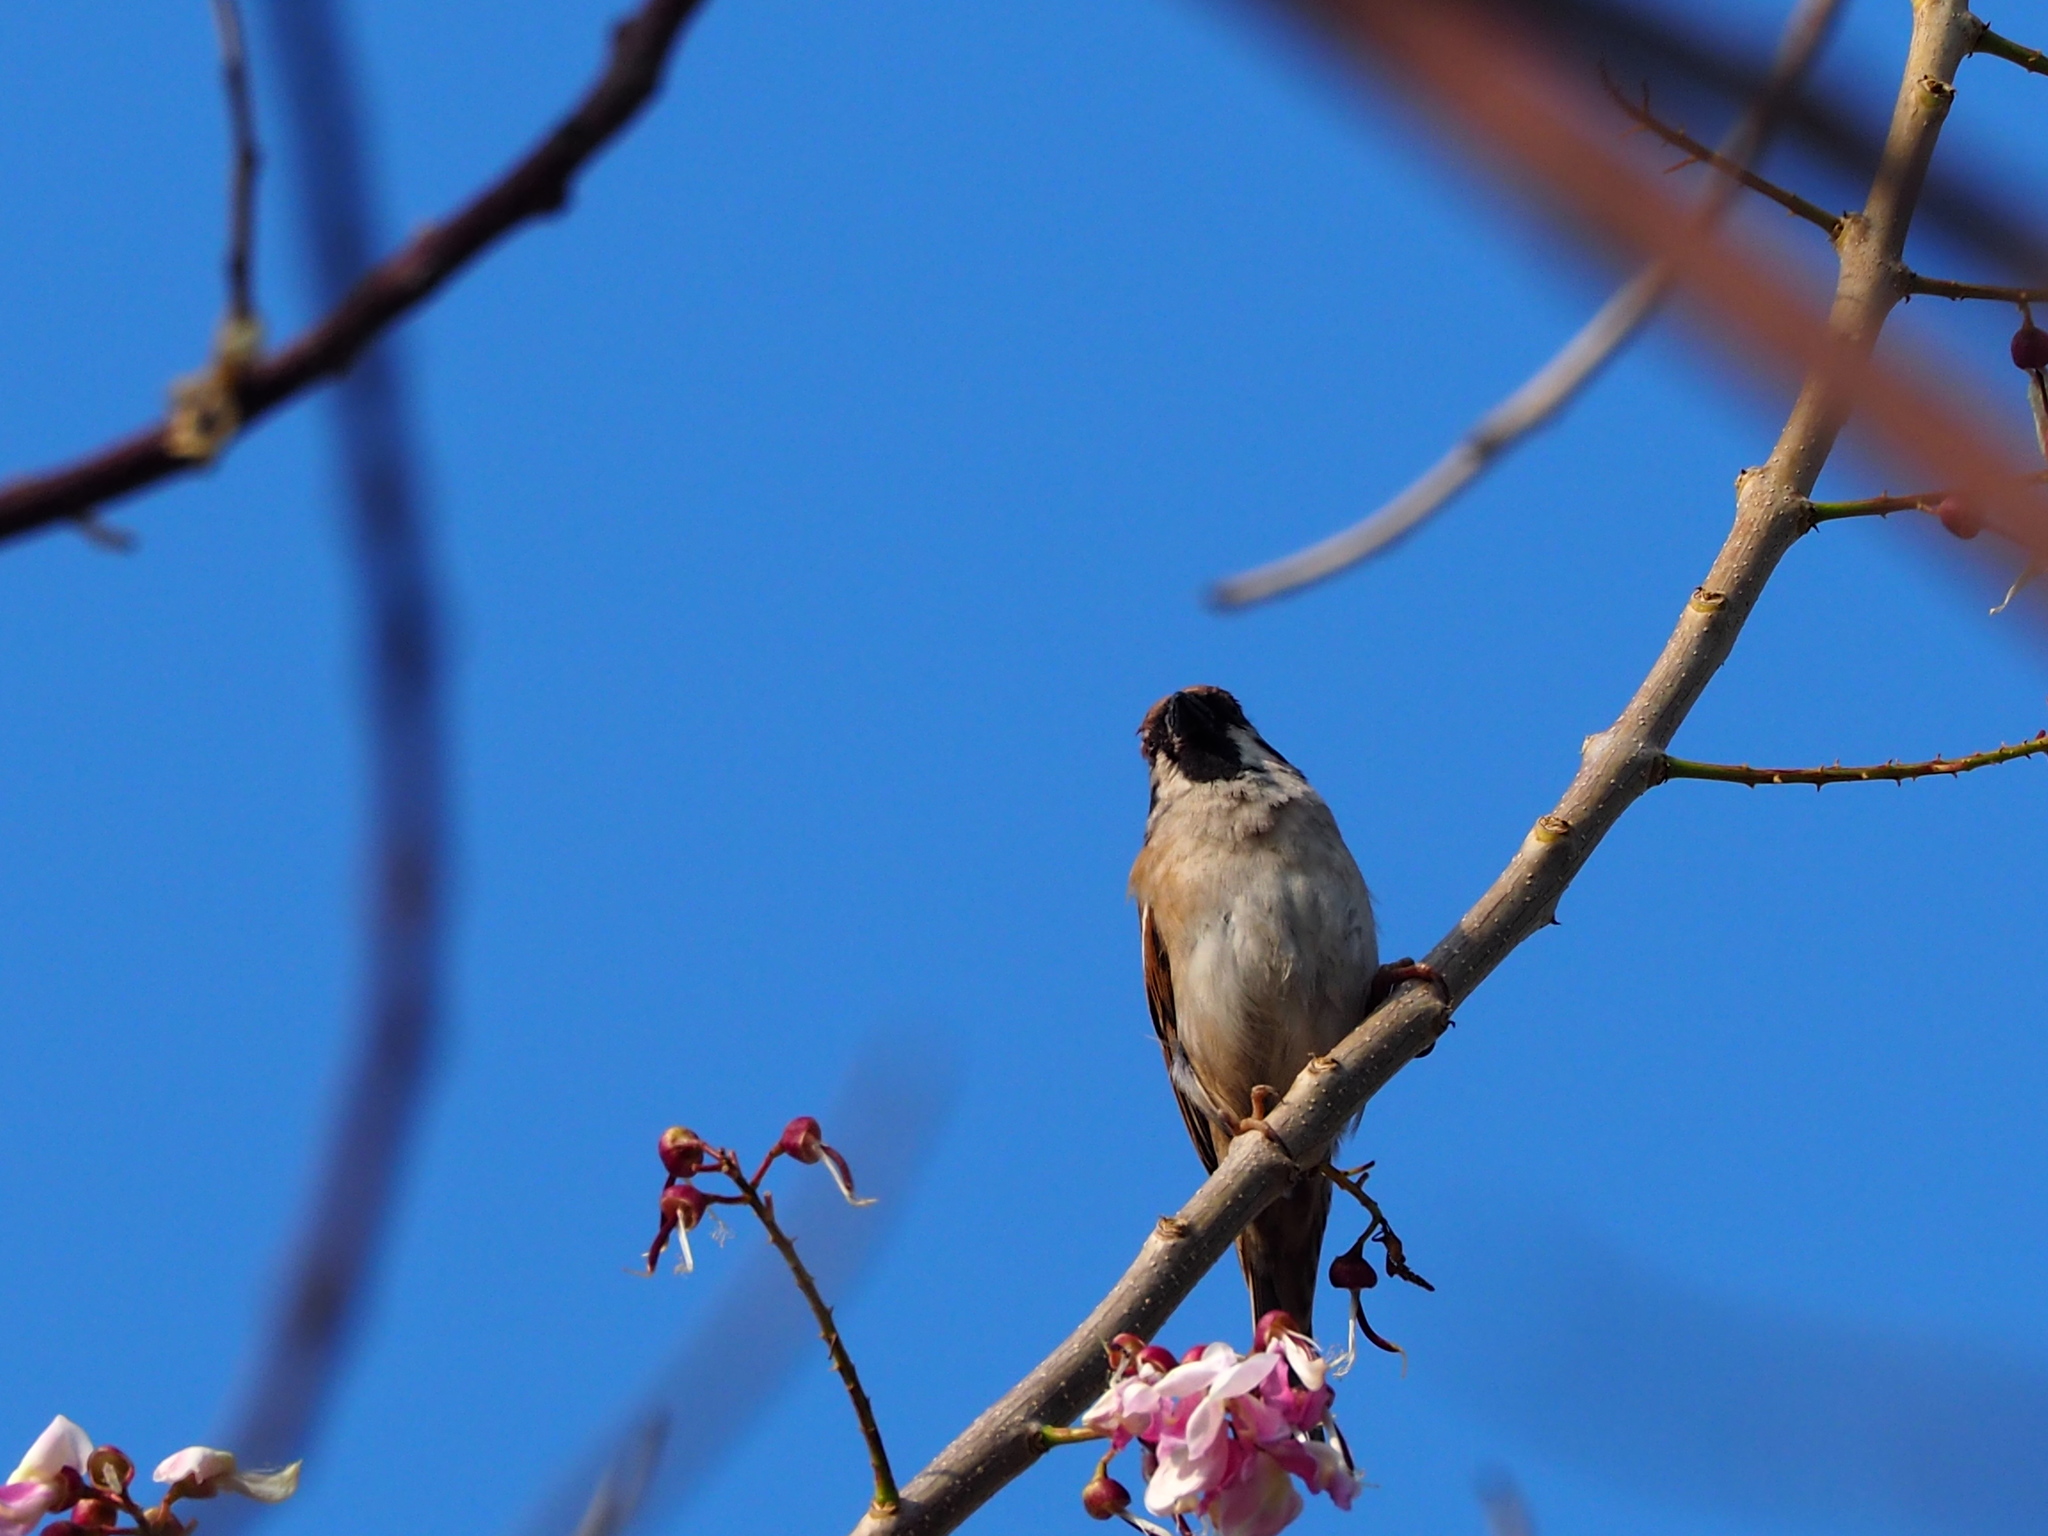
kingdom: Animalia
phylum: Chordata
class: Aves
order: Passeriformes
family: Passeridae
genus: Passer
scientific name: Passer montanus
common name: Eurasian tree sparrow
